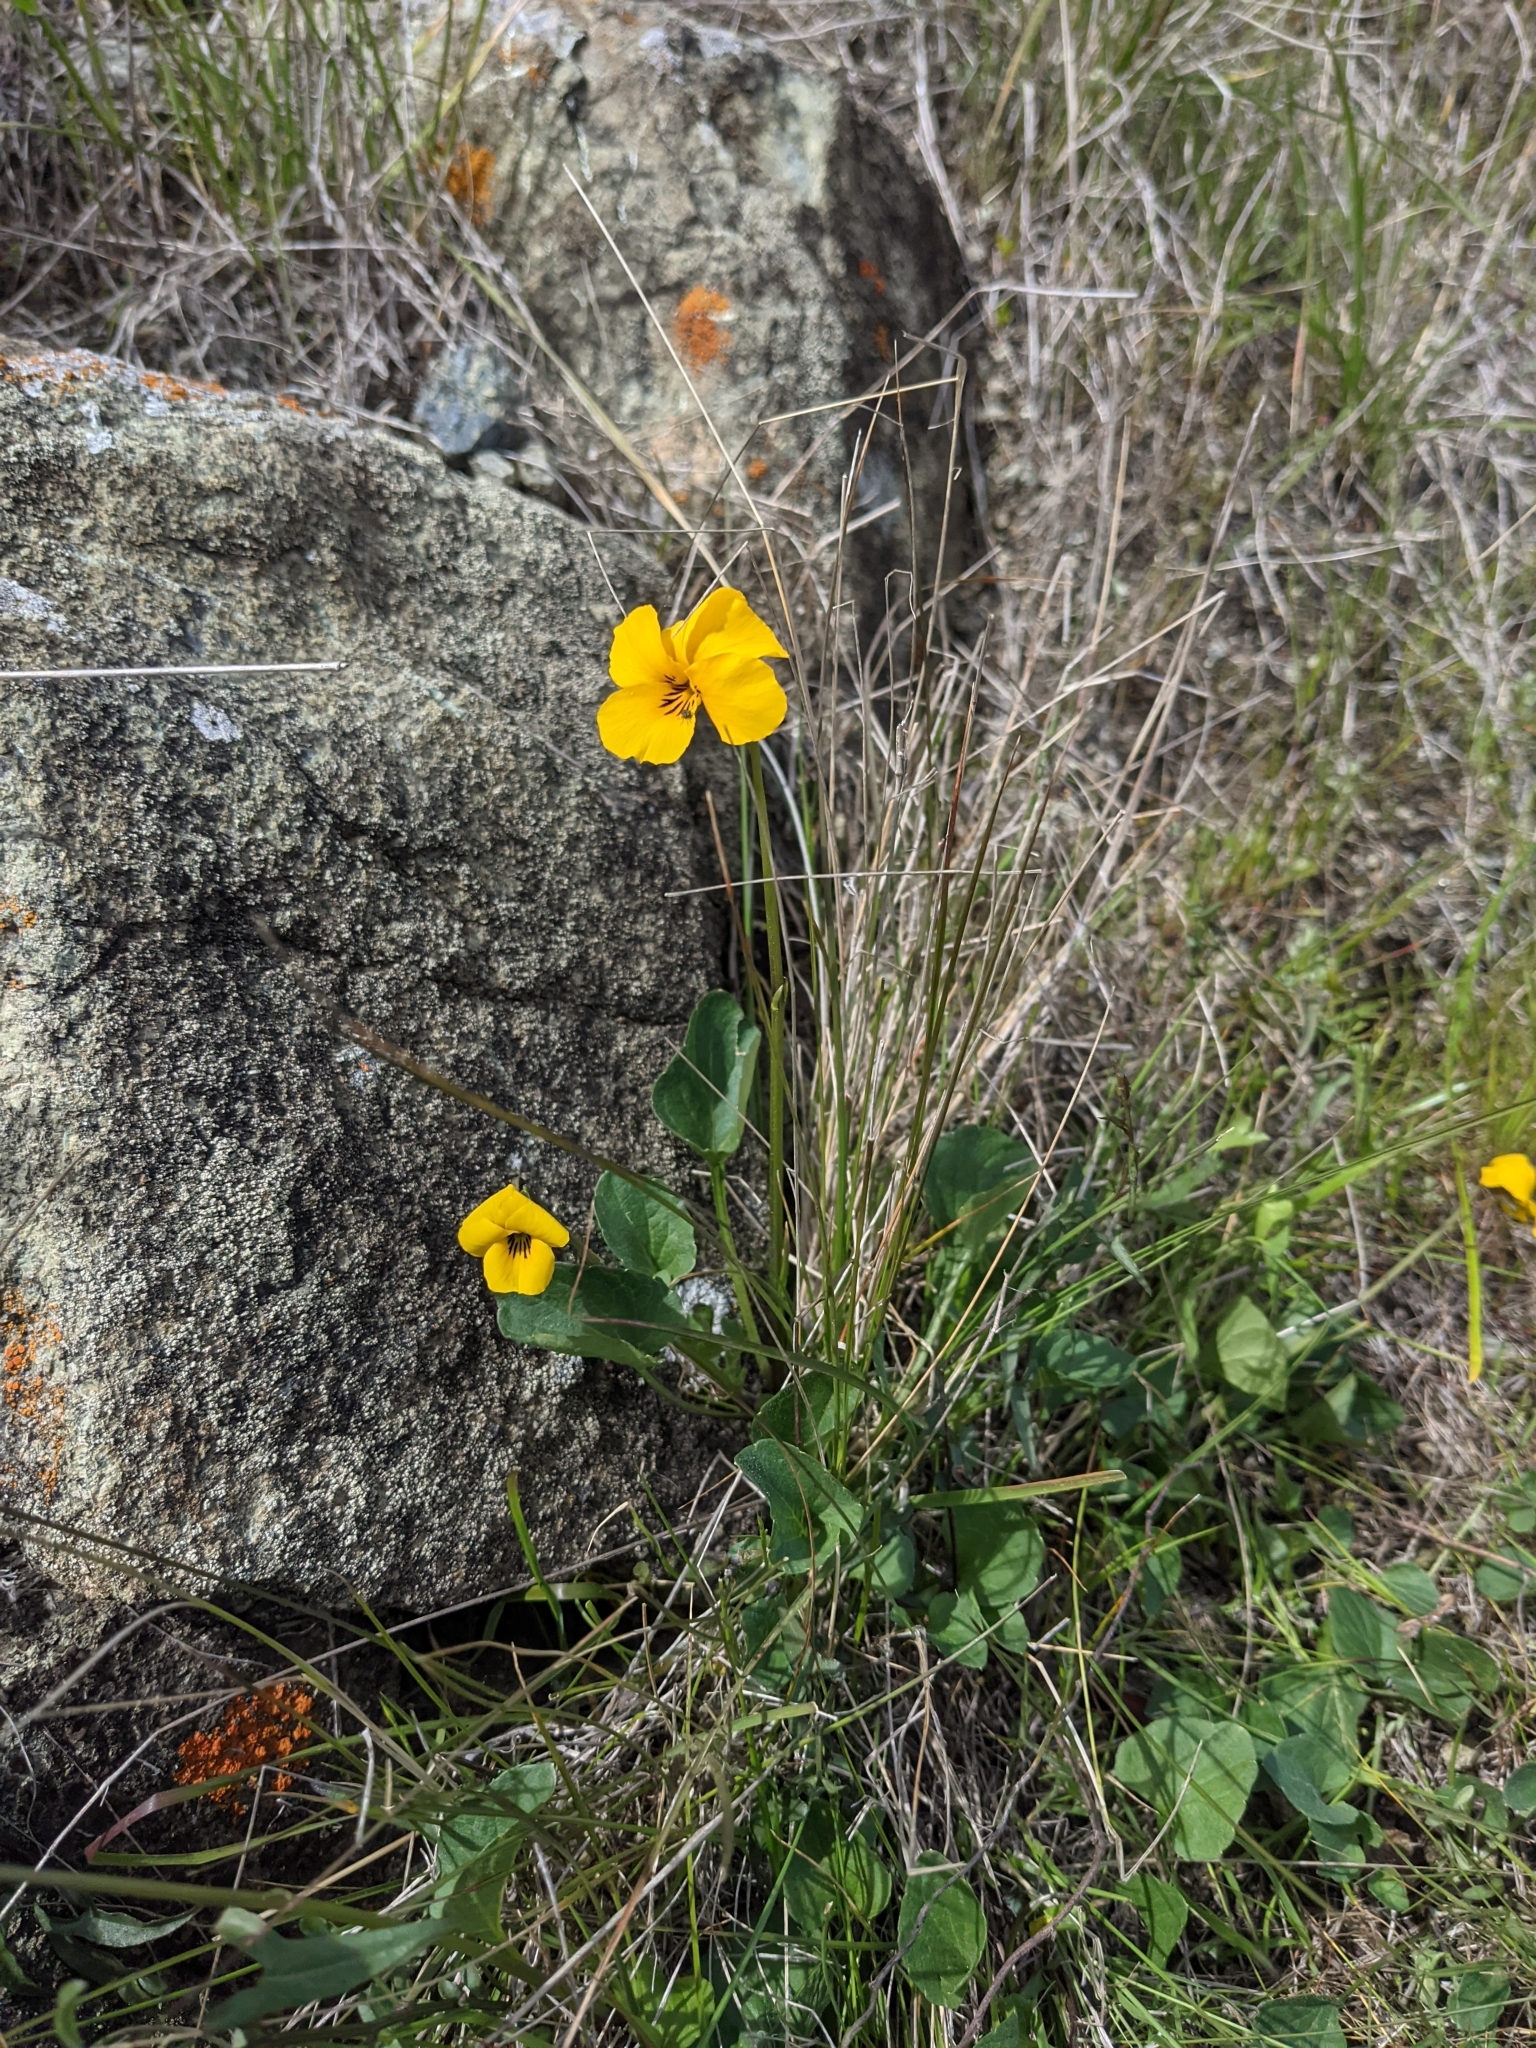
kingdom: Plantae
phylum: Tracheophyta
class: Magnoliopsida
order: Malpighiales
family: Violaceae
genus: Viola
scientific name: Viola pedunculata
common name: California golden violet
